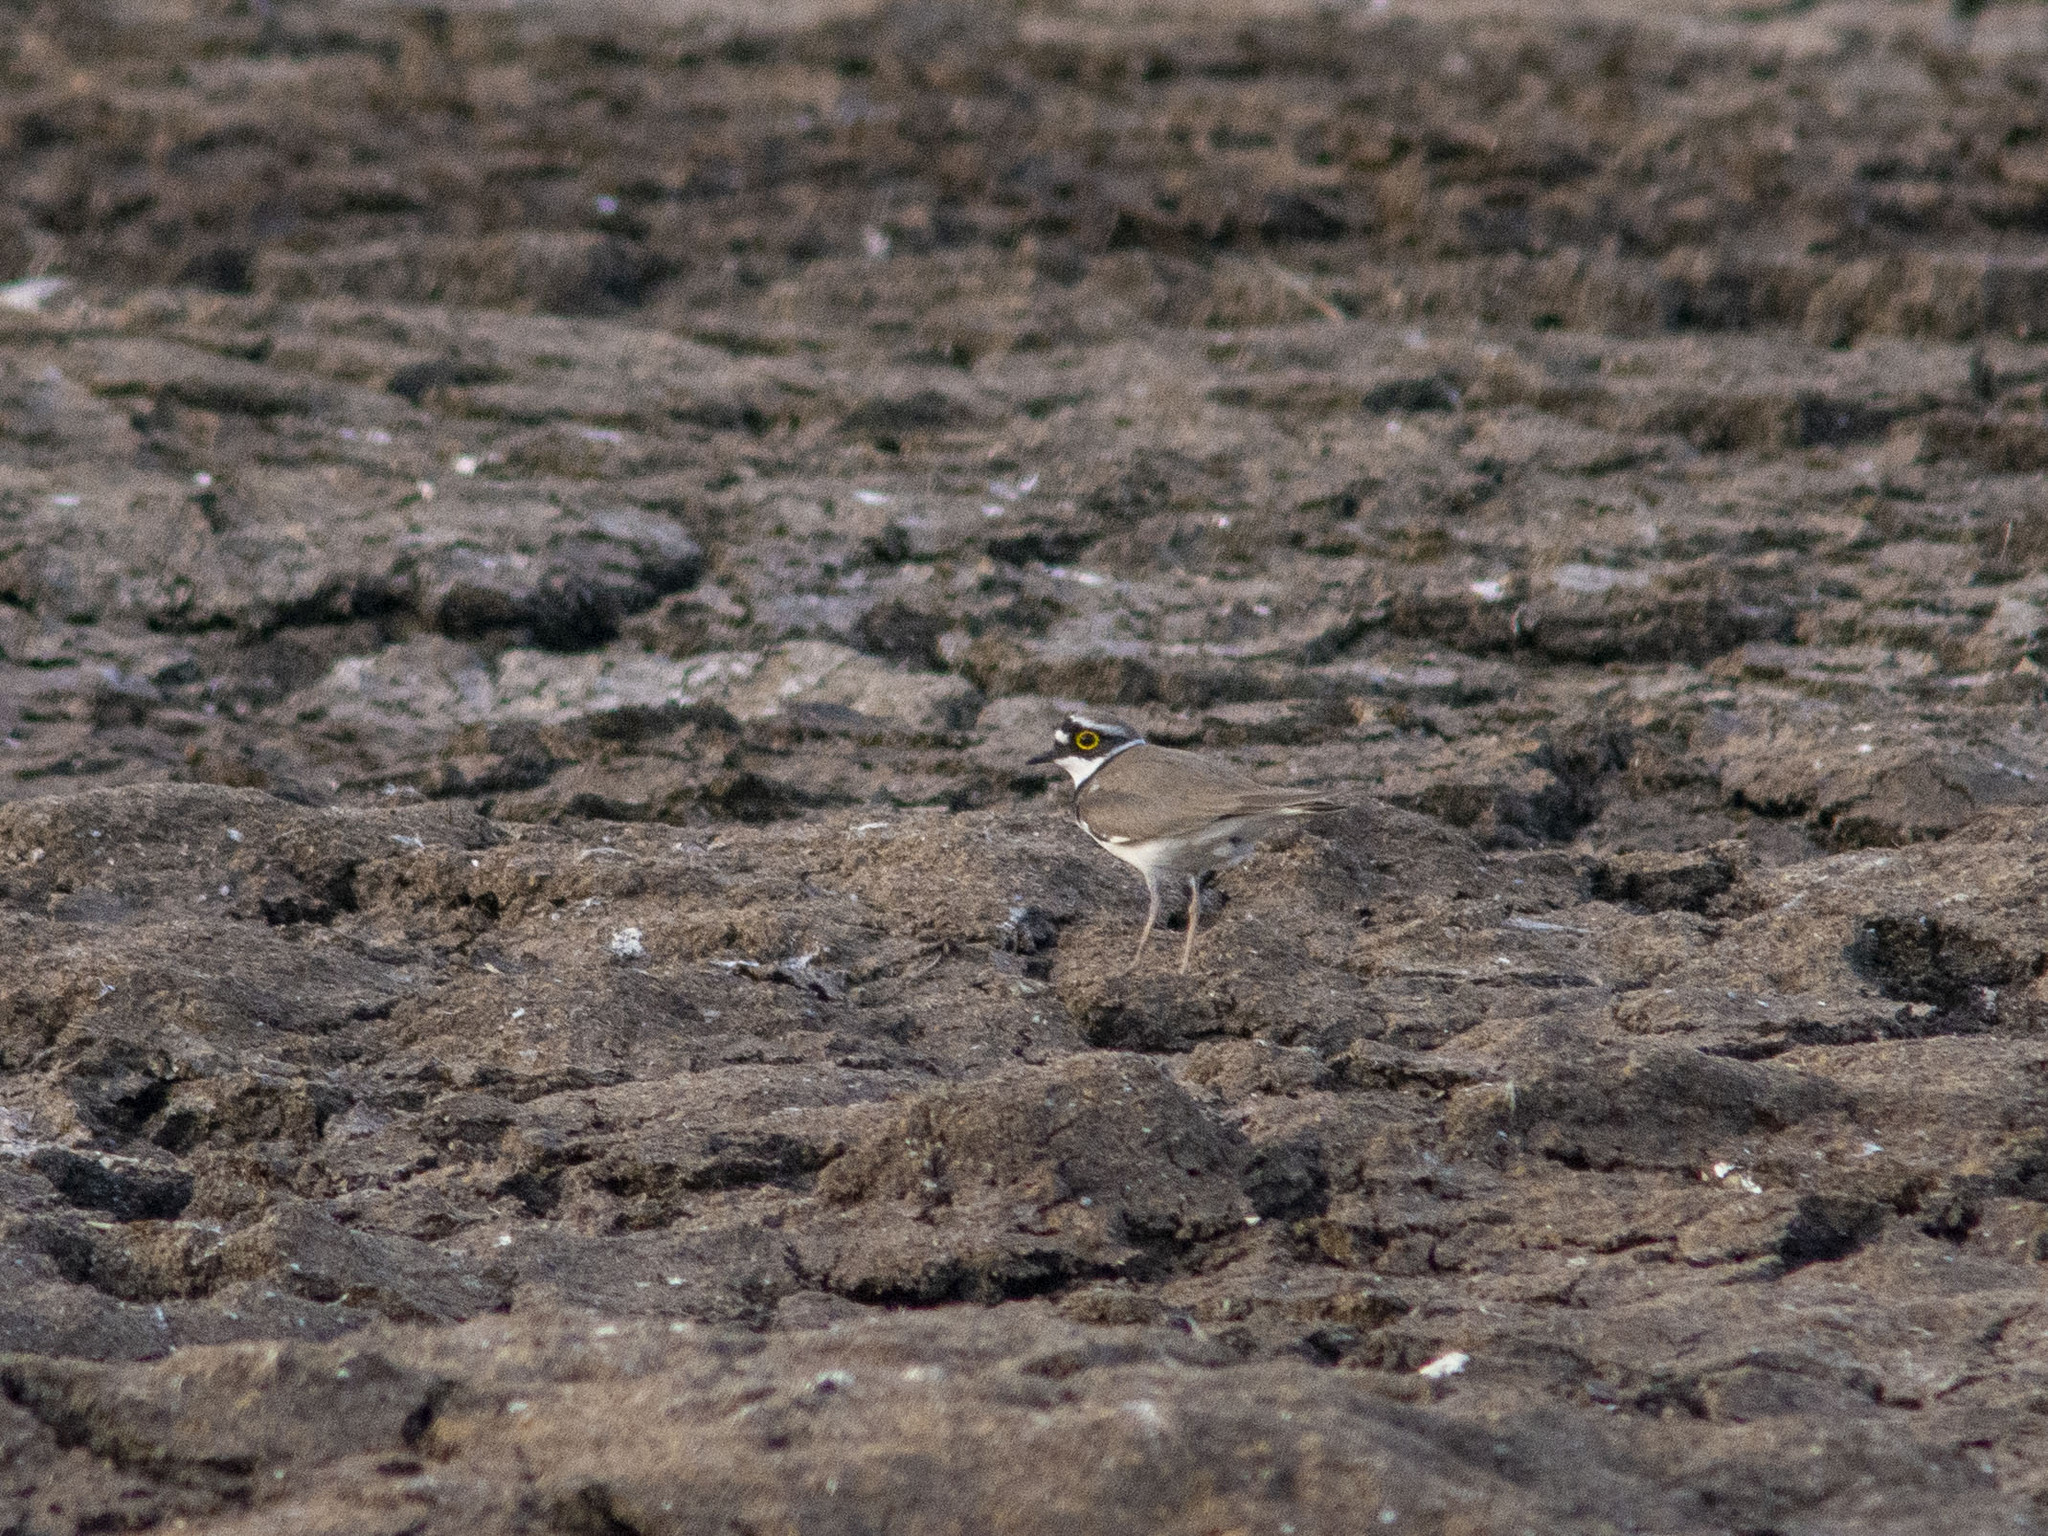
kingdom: Animalia
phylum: Chordata
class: Aves
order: Charadriiformes
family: Charadriidae
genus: Charadrius
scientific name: Charadrius dubius
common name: Little ringed plover
